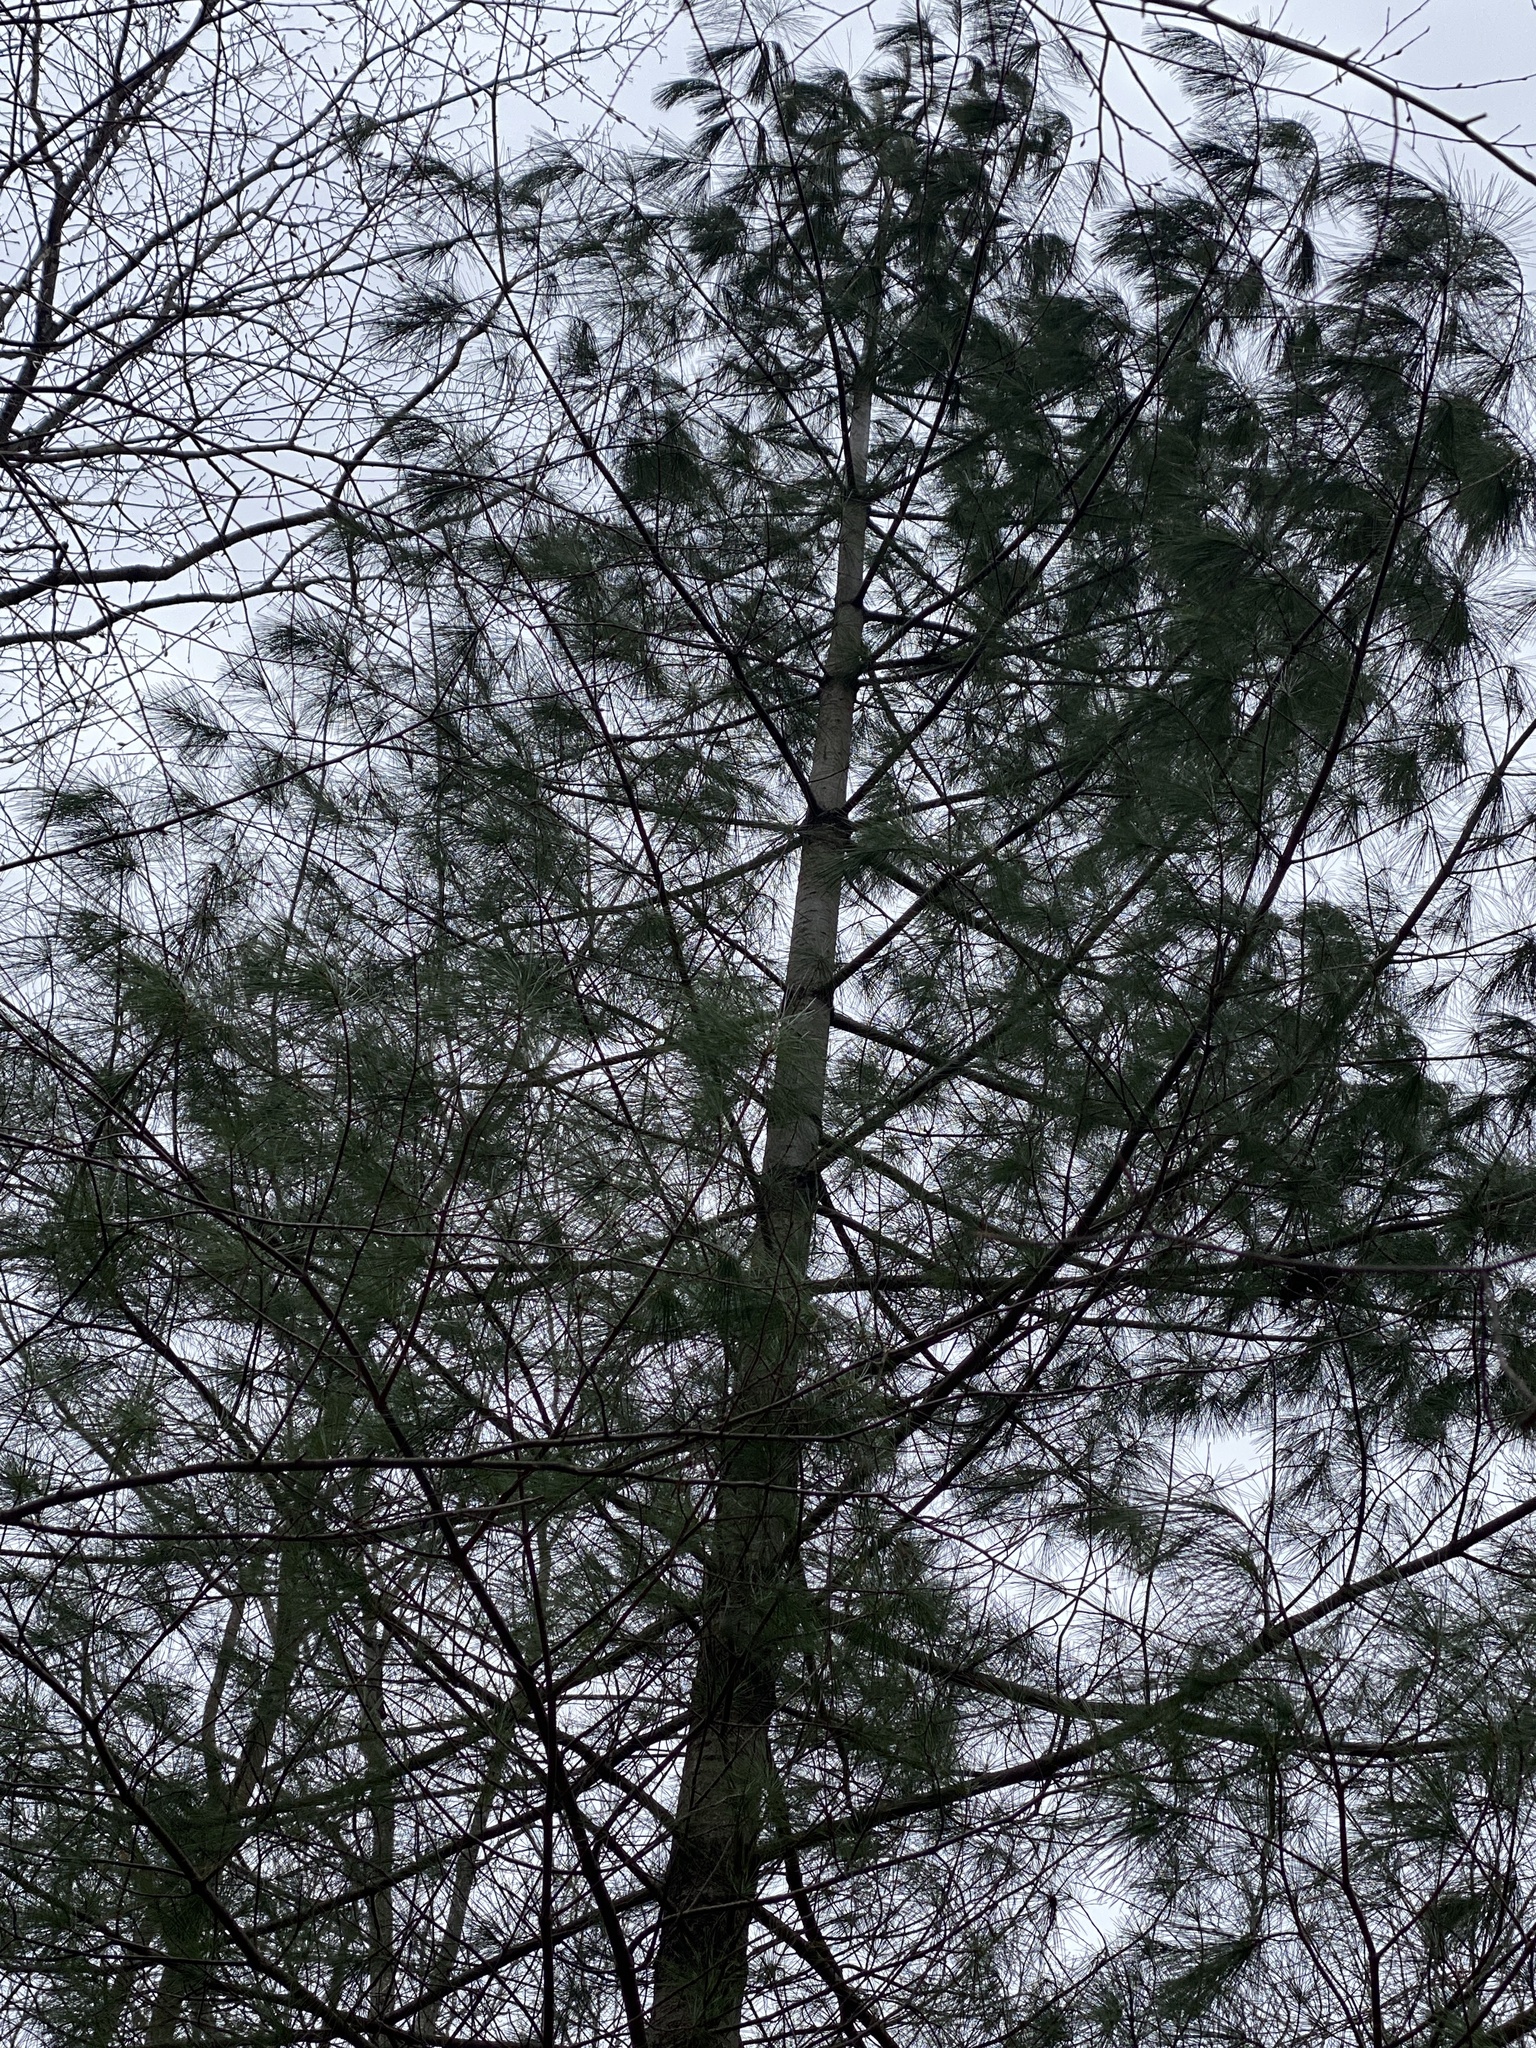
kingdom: Plantae
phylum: Tracheophyta
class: Pinopsida
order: Pinales
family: Pinaceae
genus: Pinus
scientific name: Pinus strobus
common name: Weymouth pine
